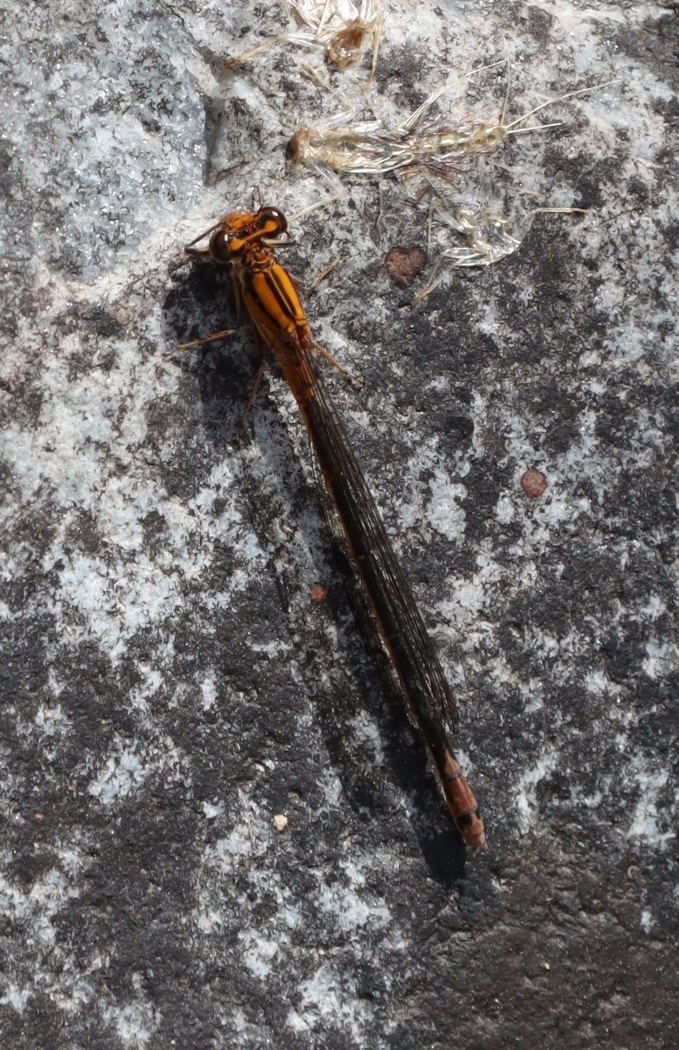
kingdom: Animalia
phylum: Arthropoda
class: Insecta
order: Odonata
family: Coenagrionidae
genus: Pseudagrion
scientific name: Pseudagrion furcigerum
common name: Palmiet sprite
